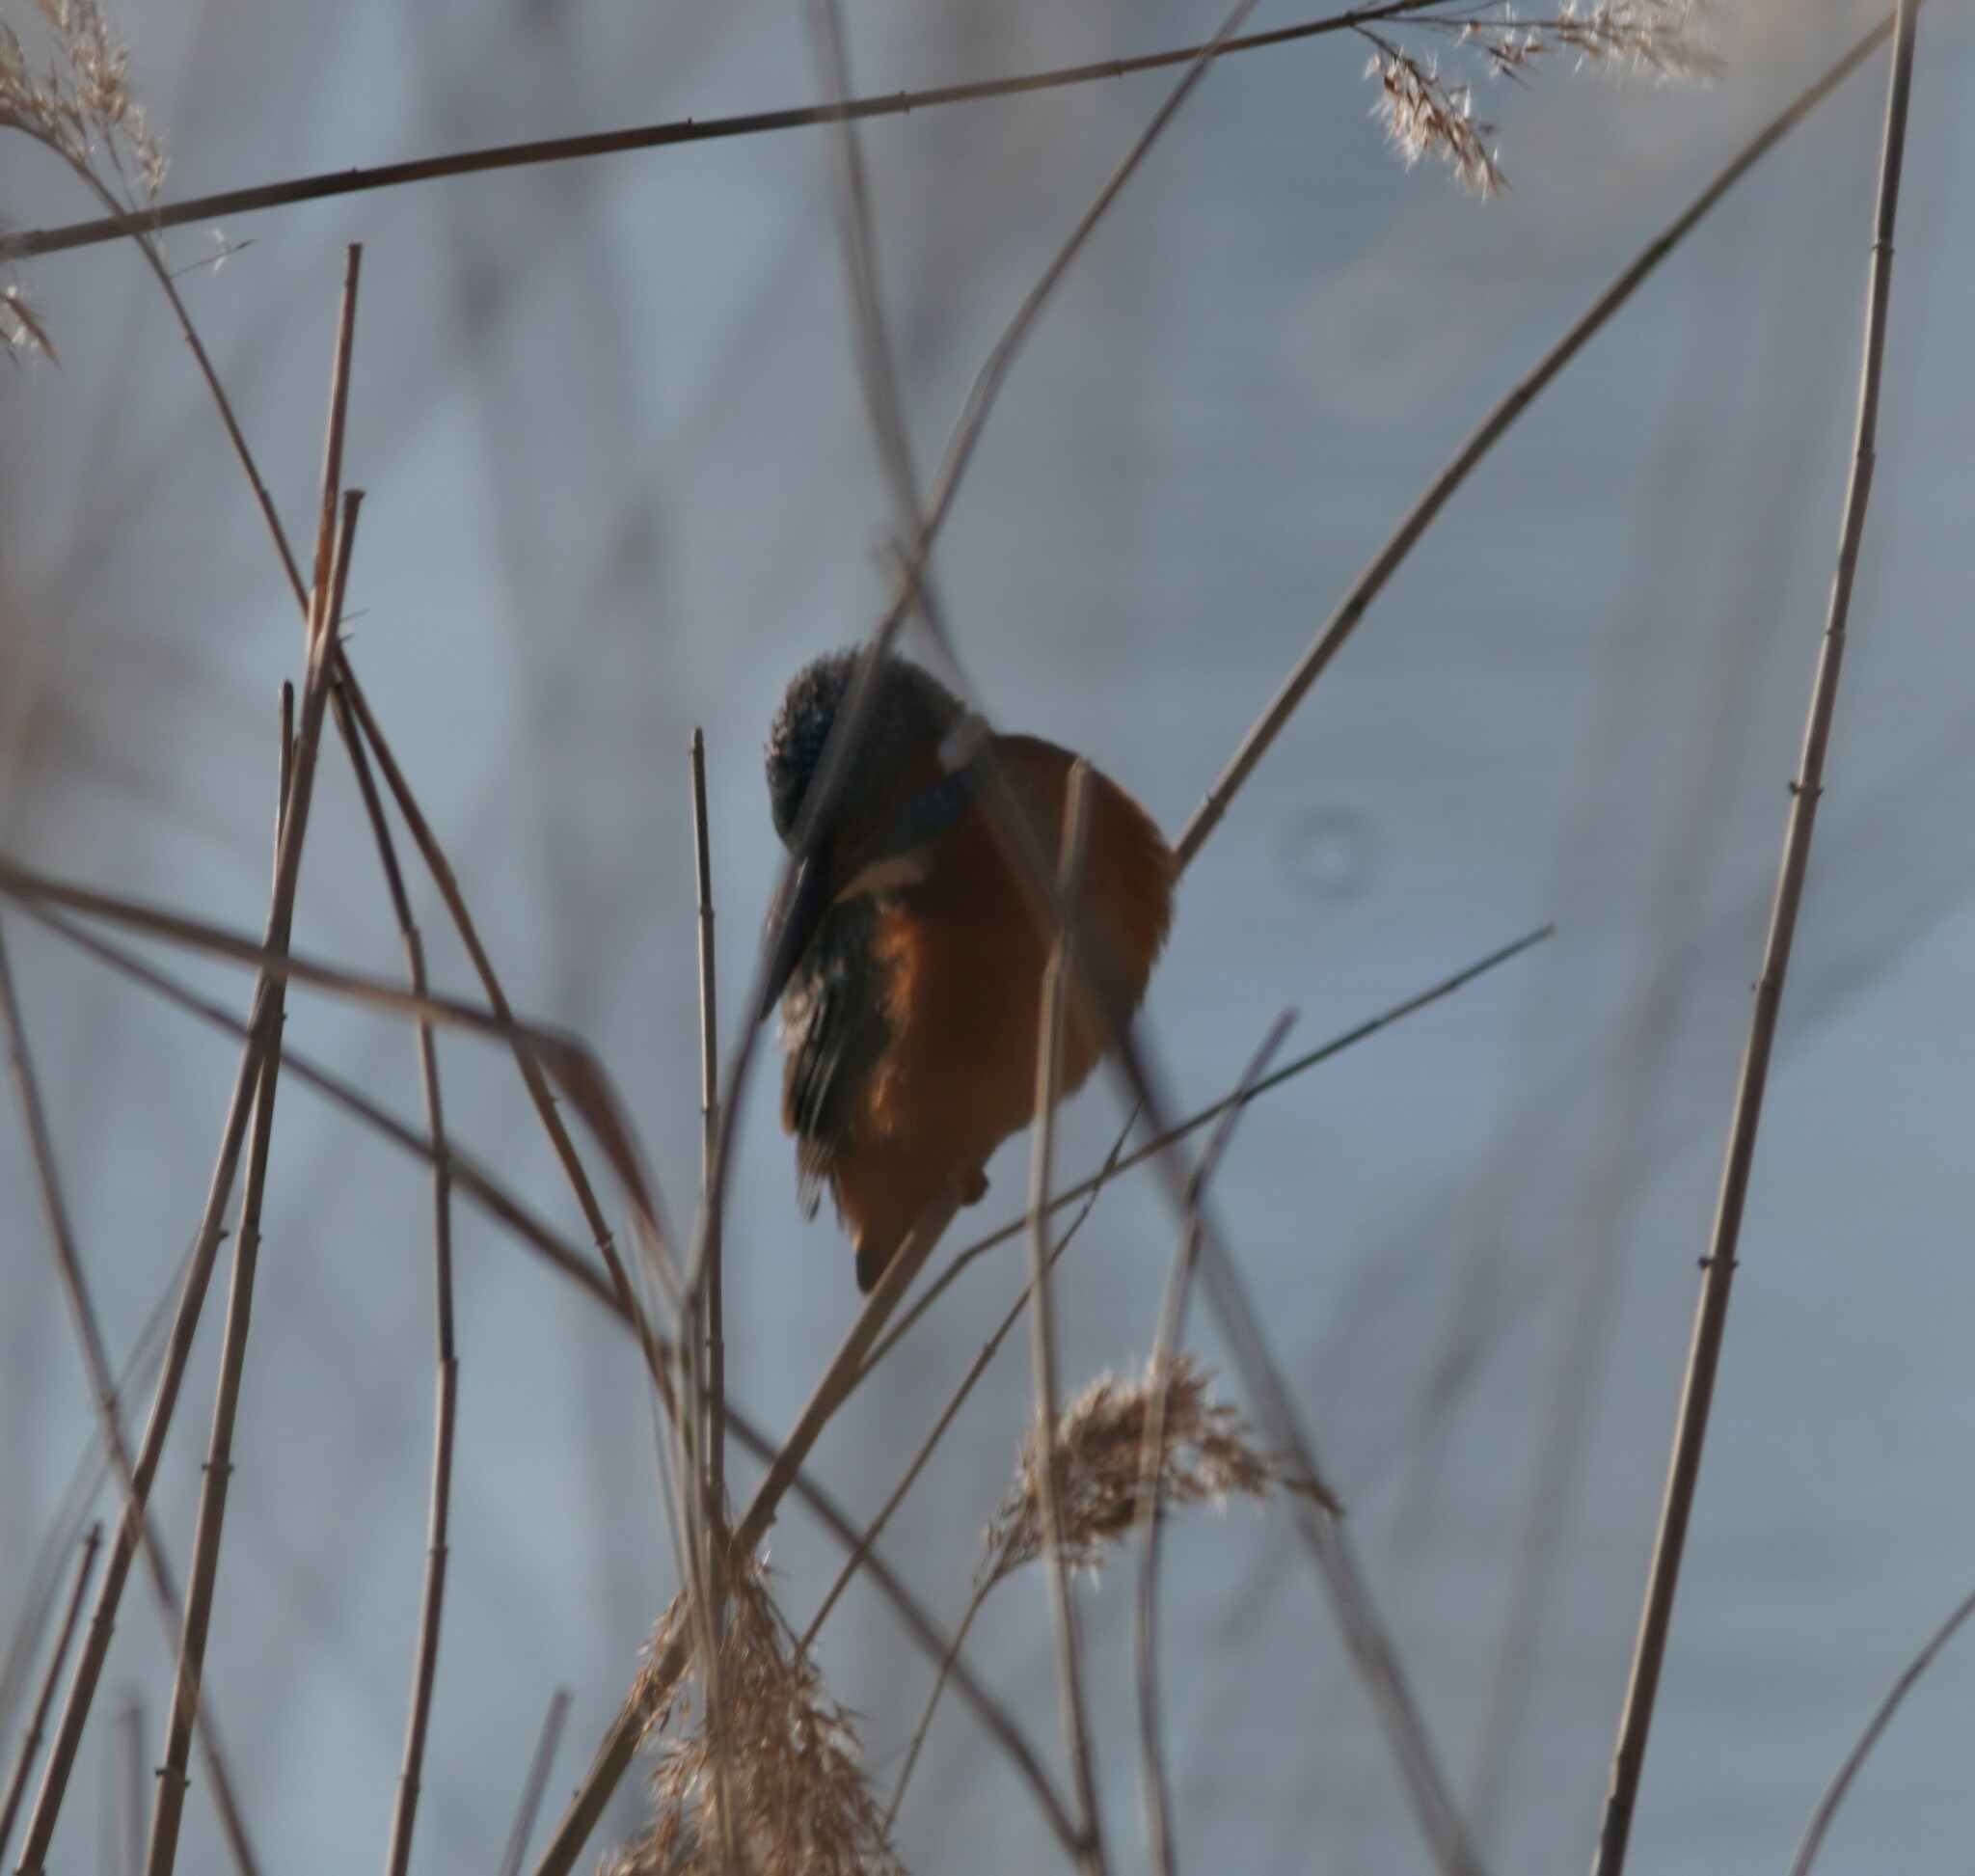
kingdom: Animalia
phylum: Chordata
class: Aves
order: Coraciiformes
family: Alcedinidae
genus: Alcedo
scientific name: Alcedo atthis
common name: Common kingfisher
